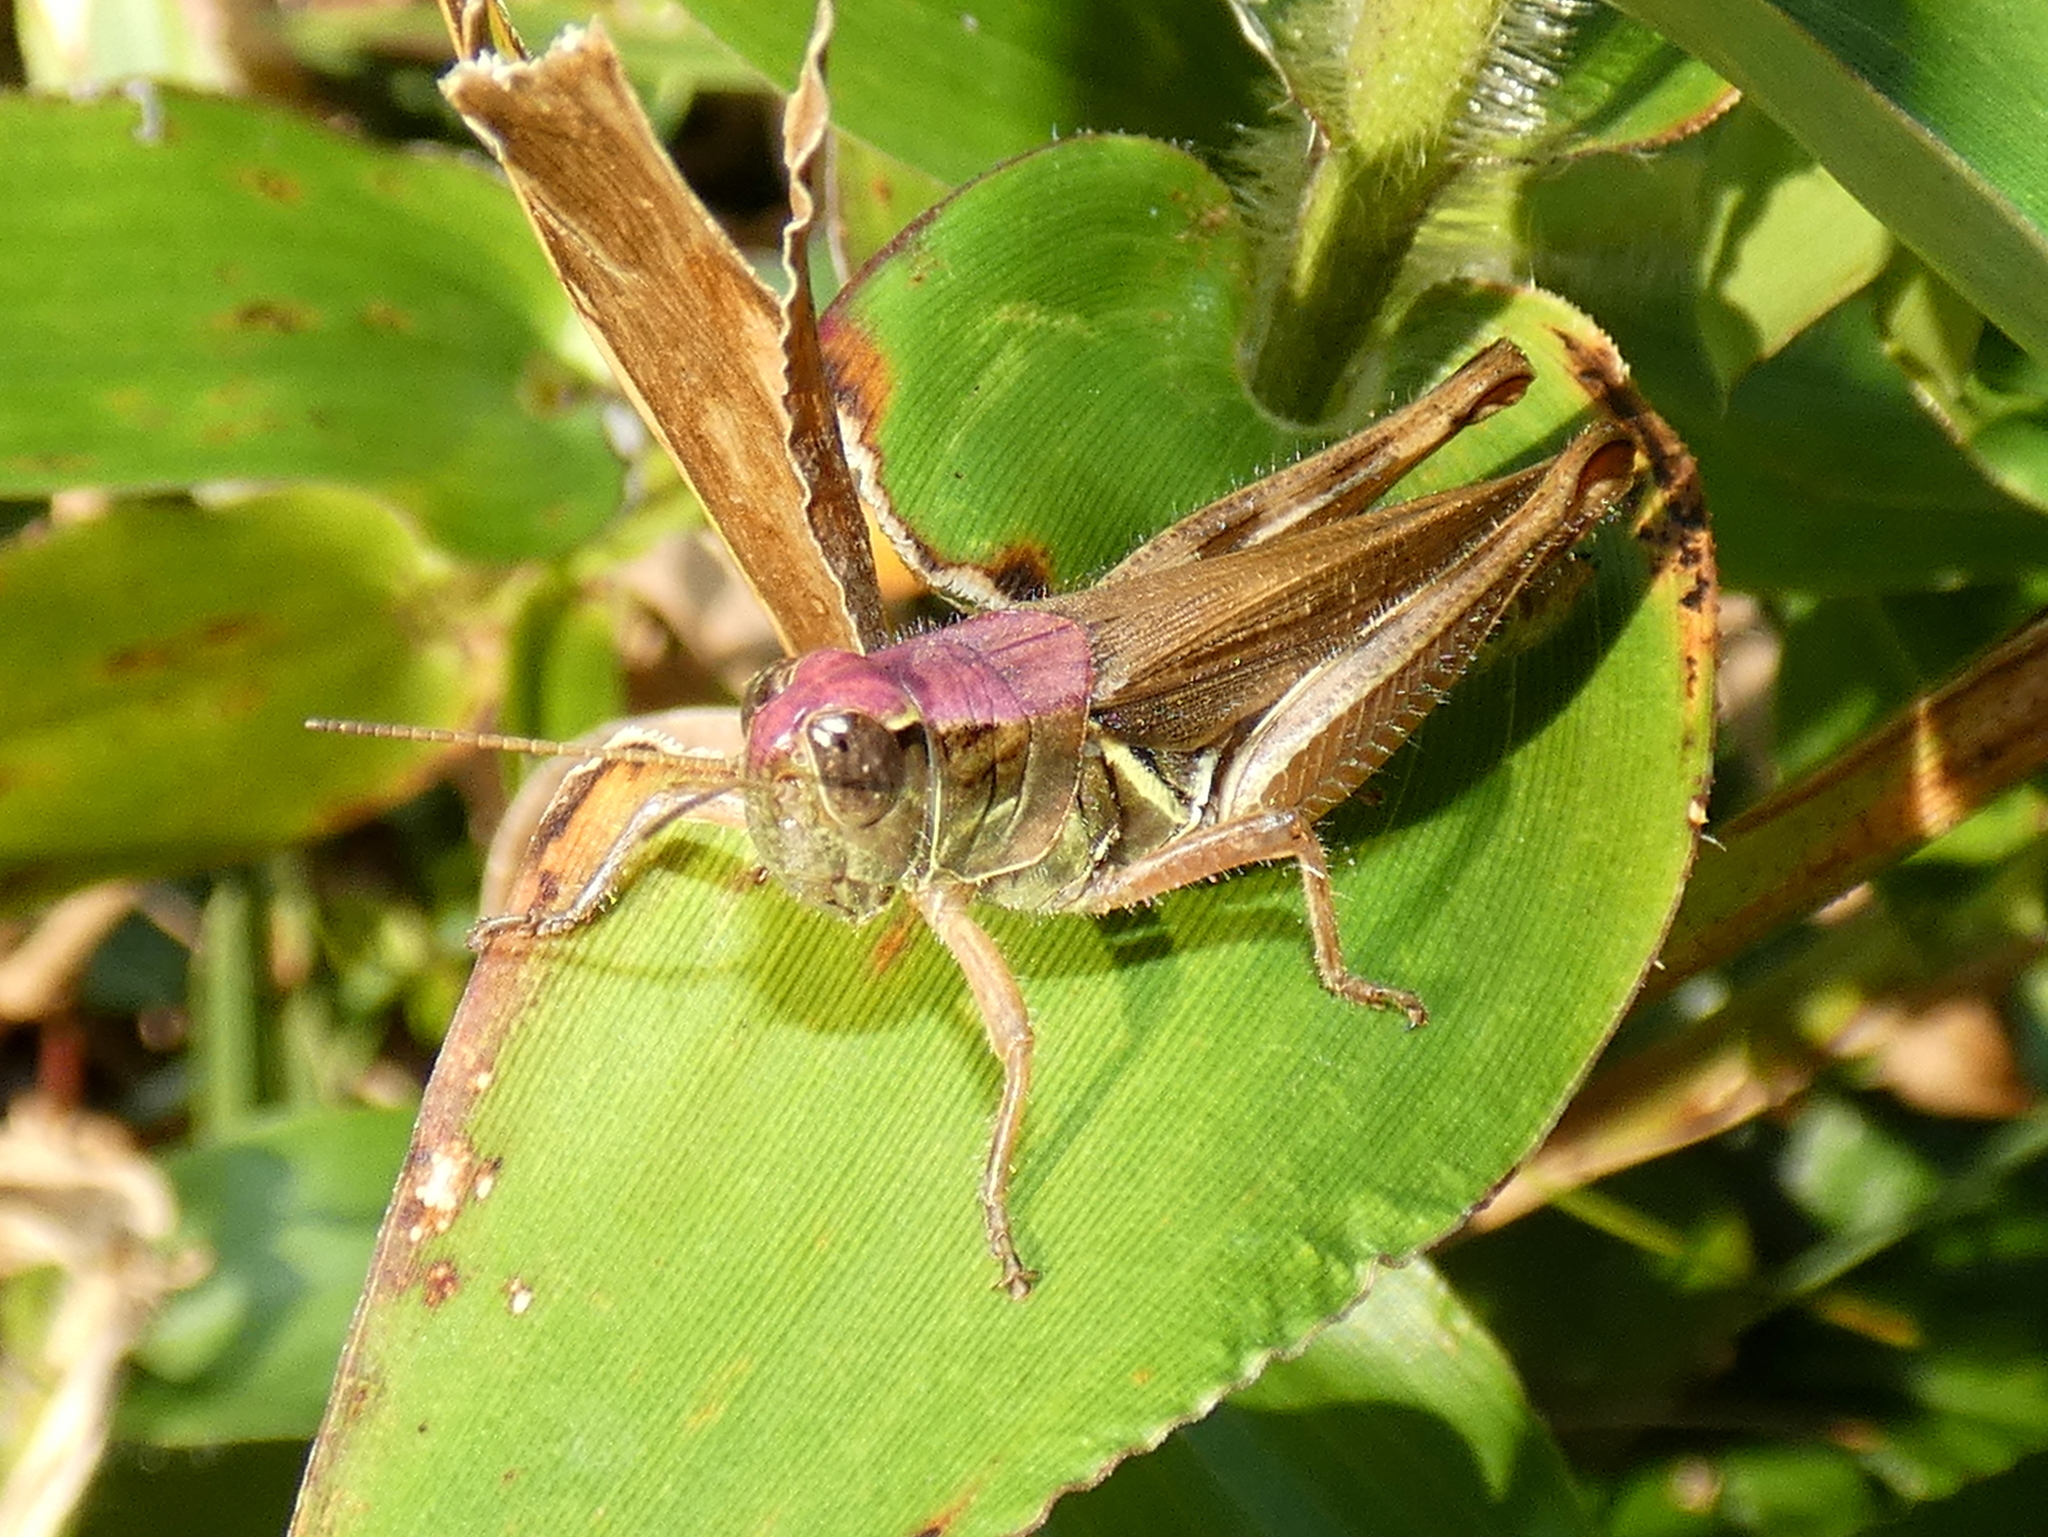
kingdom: Animalia
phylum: Arthropoda
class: Insecta
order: Orthoptera
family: Acrididae
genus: Melanoplus
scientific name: Melanoplus femurrubrum
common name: Red-legged grasshopper
